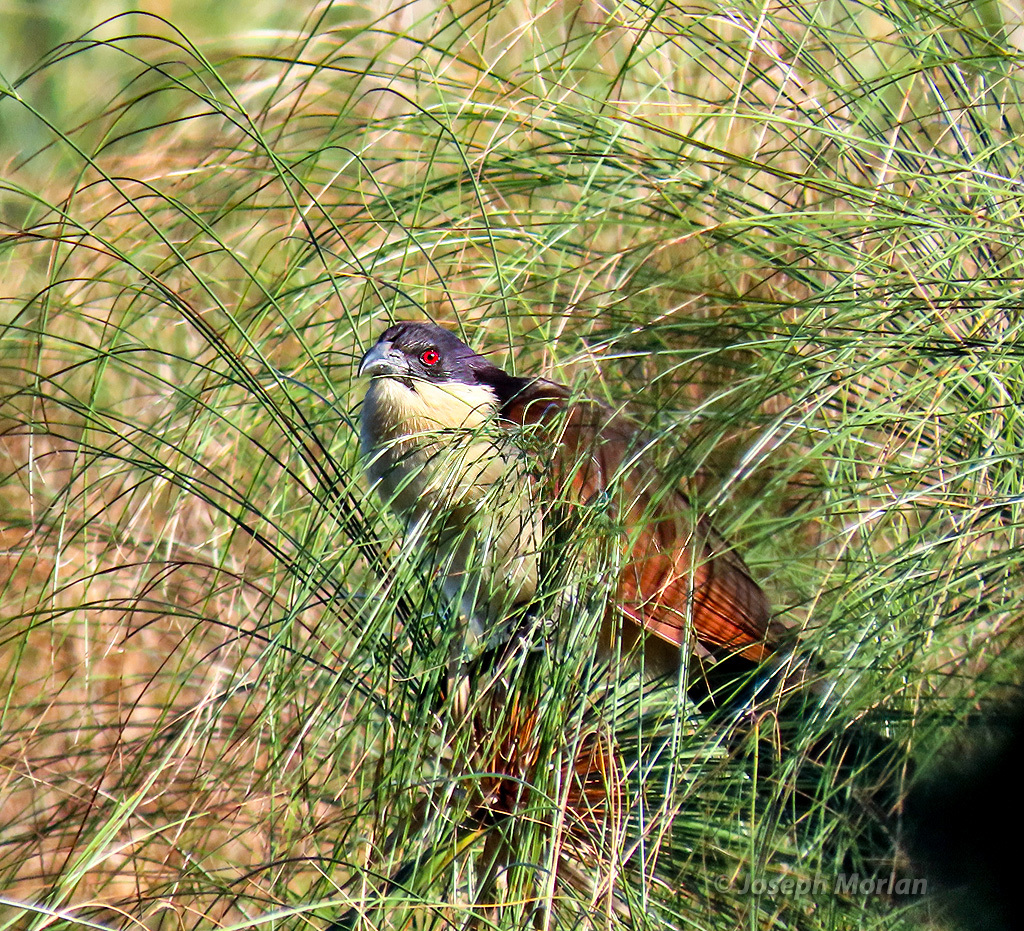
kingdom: Animalia
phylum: Chordata
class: Aves
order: Cuculiformes
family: Cuculidae
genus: Centropus
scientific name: Centropus cupreicaudus
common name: Coppery-tailed coucal
